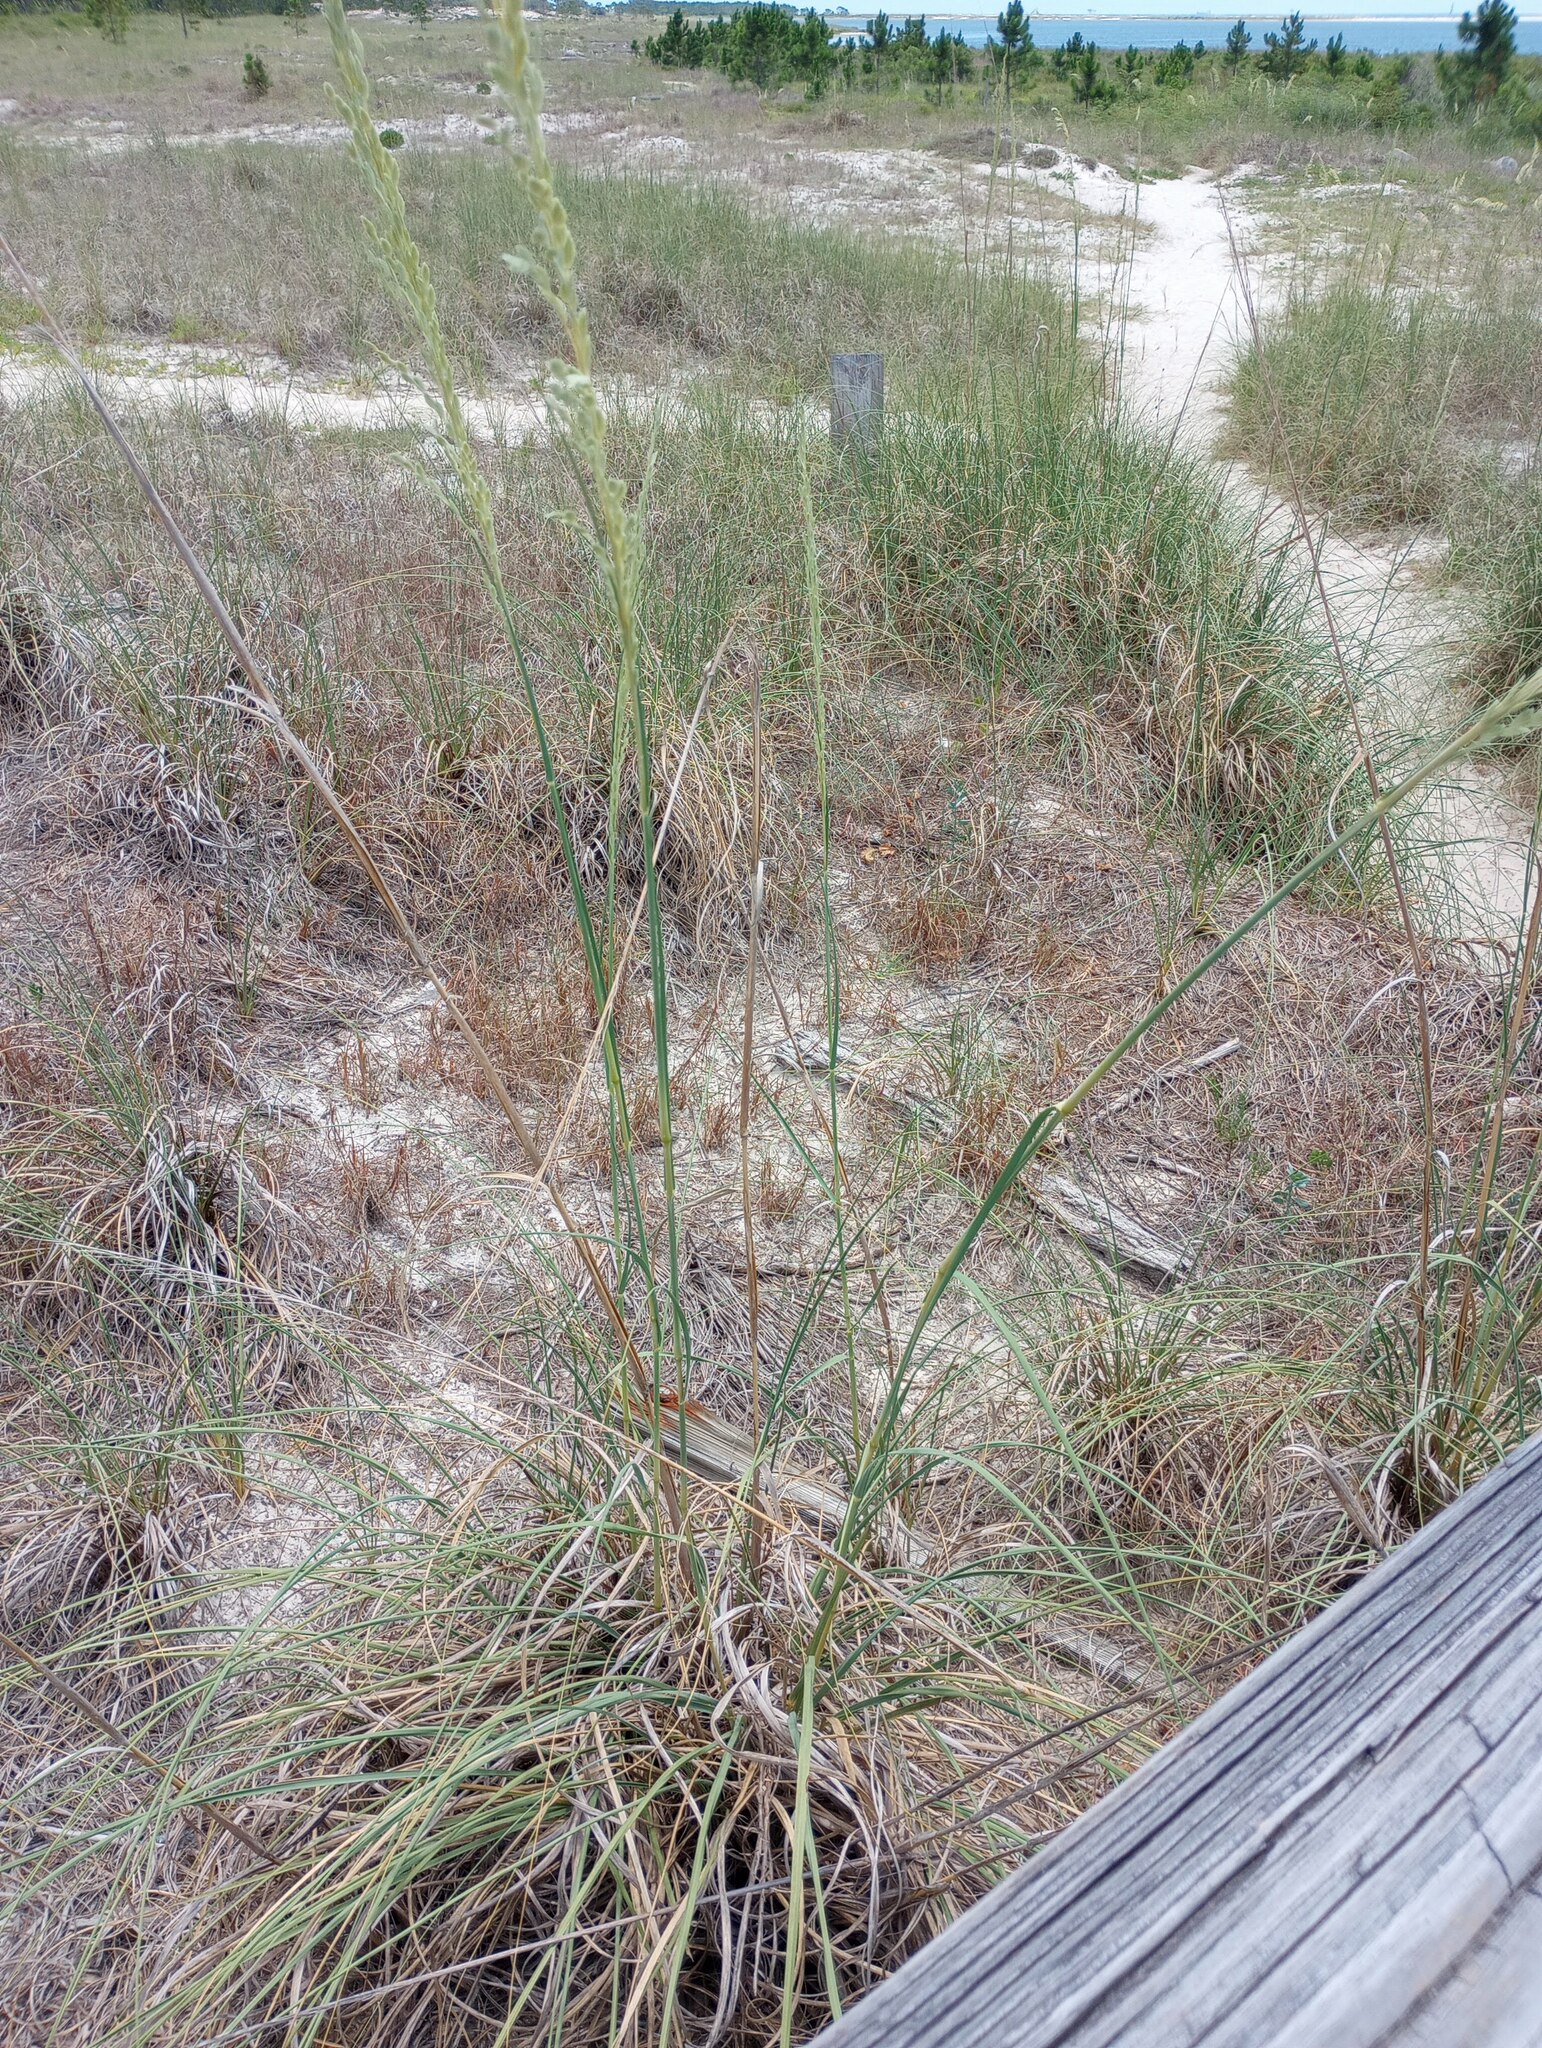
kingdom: Plantae
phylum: Tracheophyta
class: Liliopsida
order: Poales
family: Poaceae
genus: Uniola
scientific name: Uniola paniculata
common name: Seaside-oats
